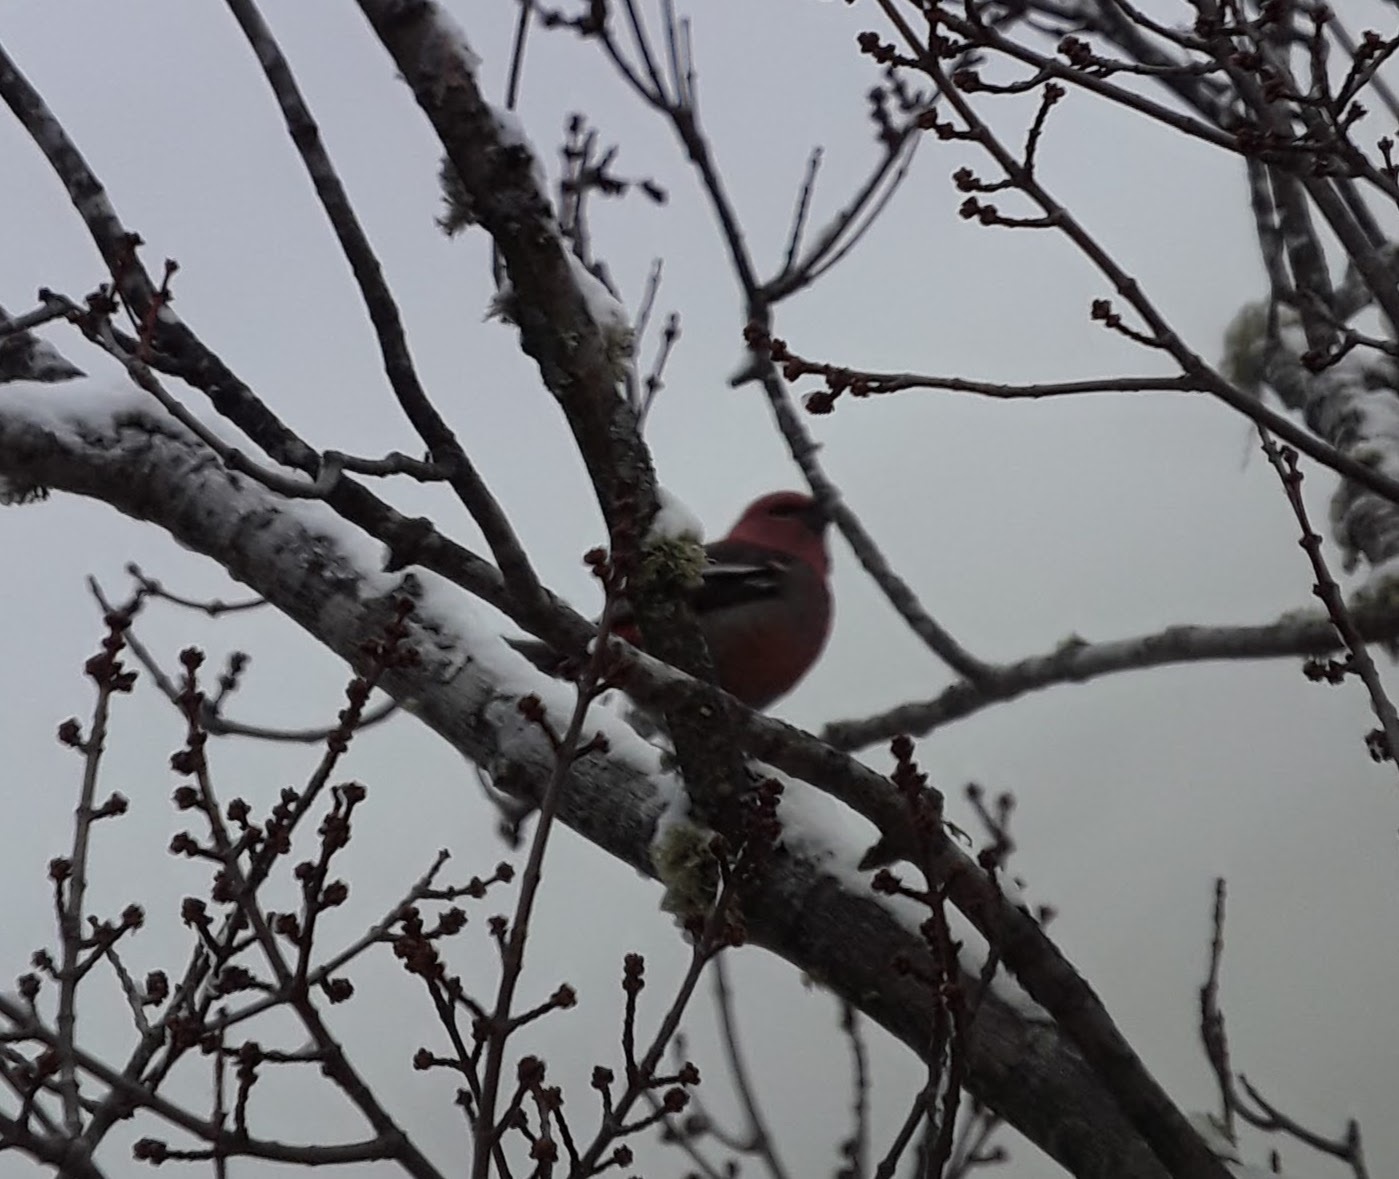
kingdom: Animalia
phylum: Chordata
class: Aves
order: Passeriformes
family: Fringillidae
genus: Pinicola
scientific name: Pinicola enucleator
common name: Pine grosbeak
